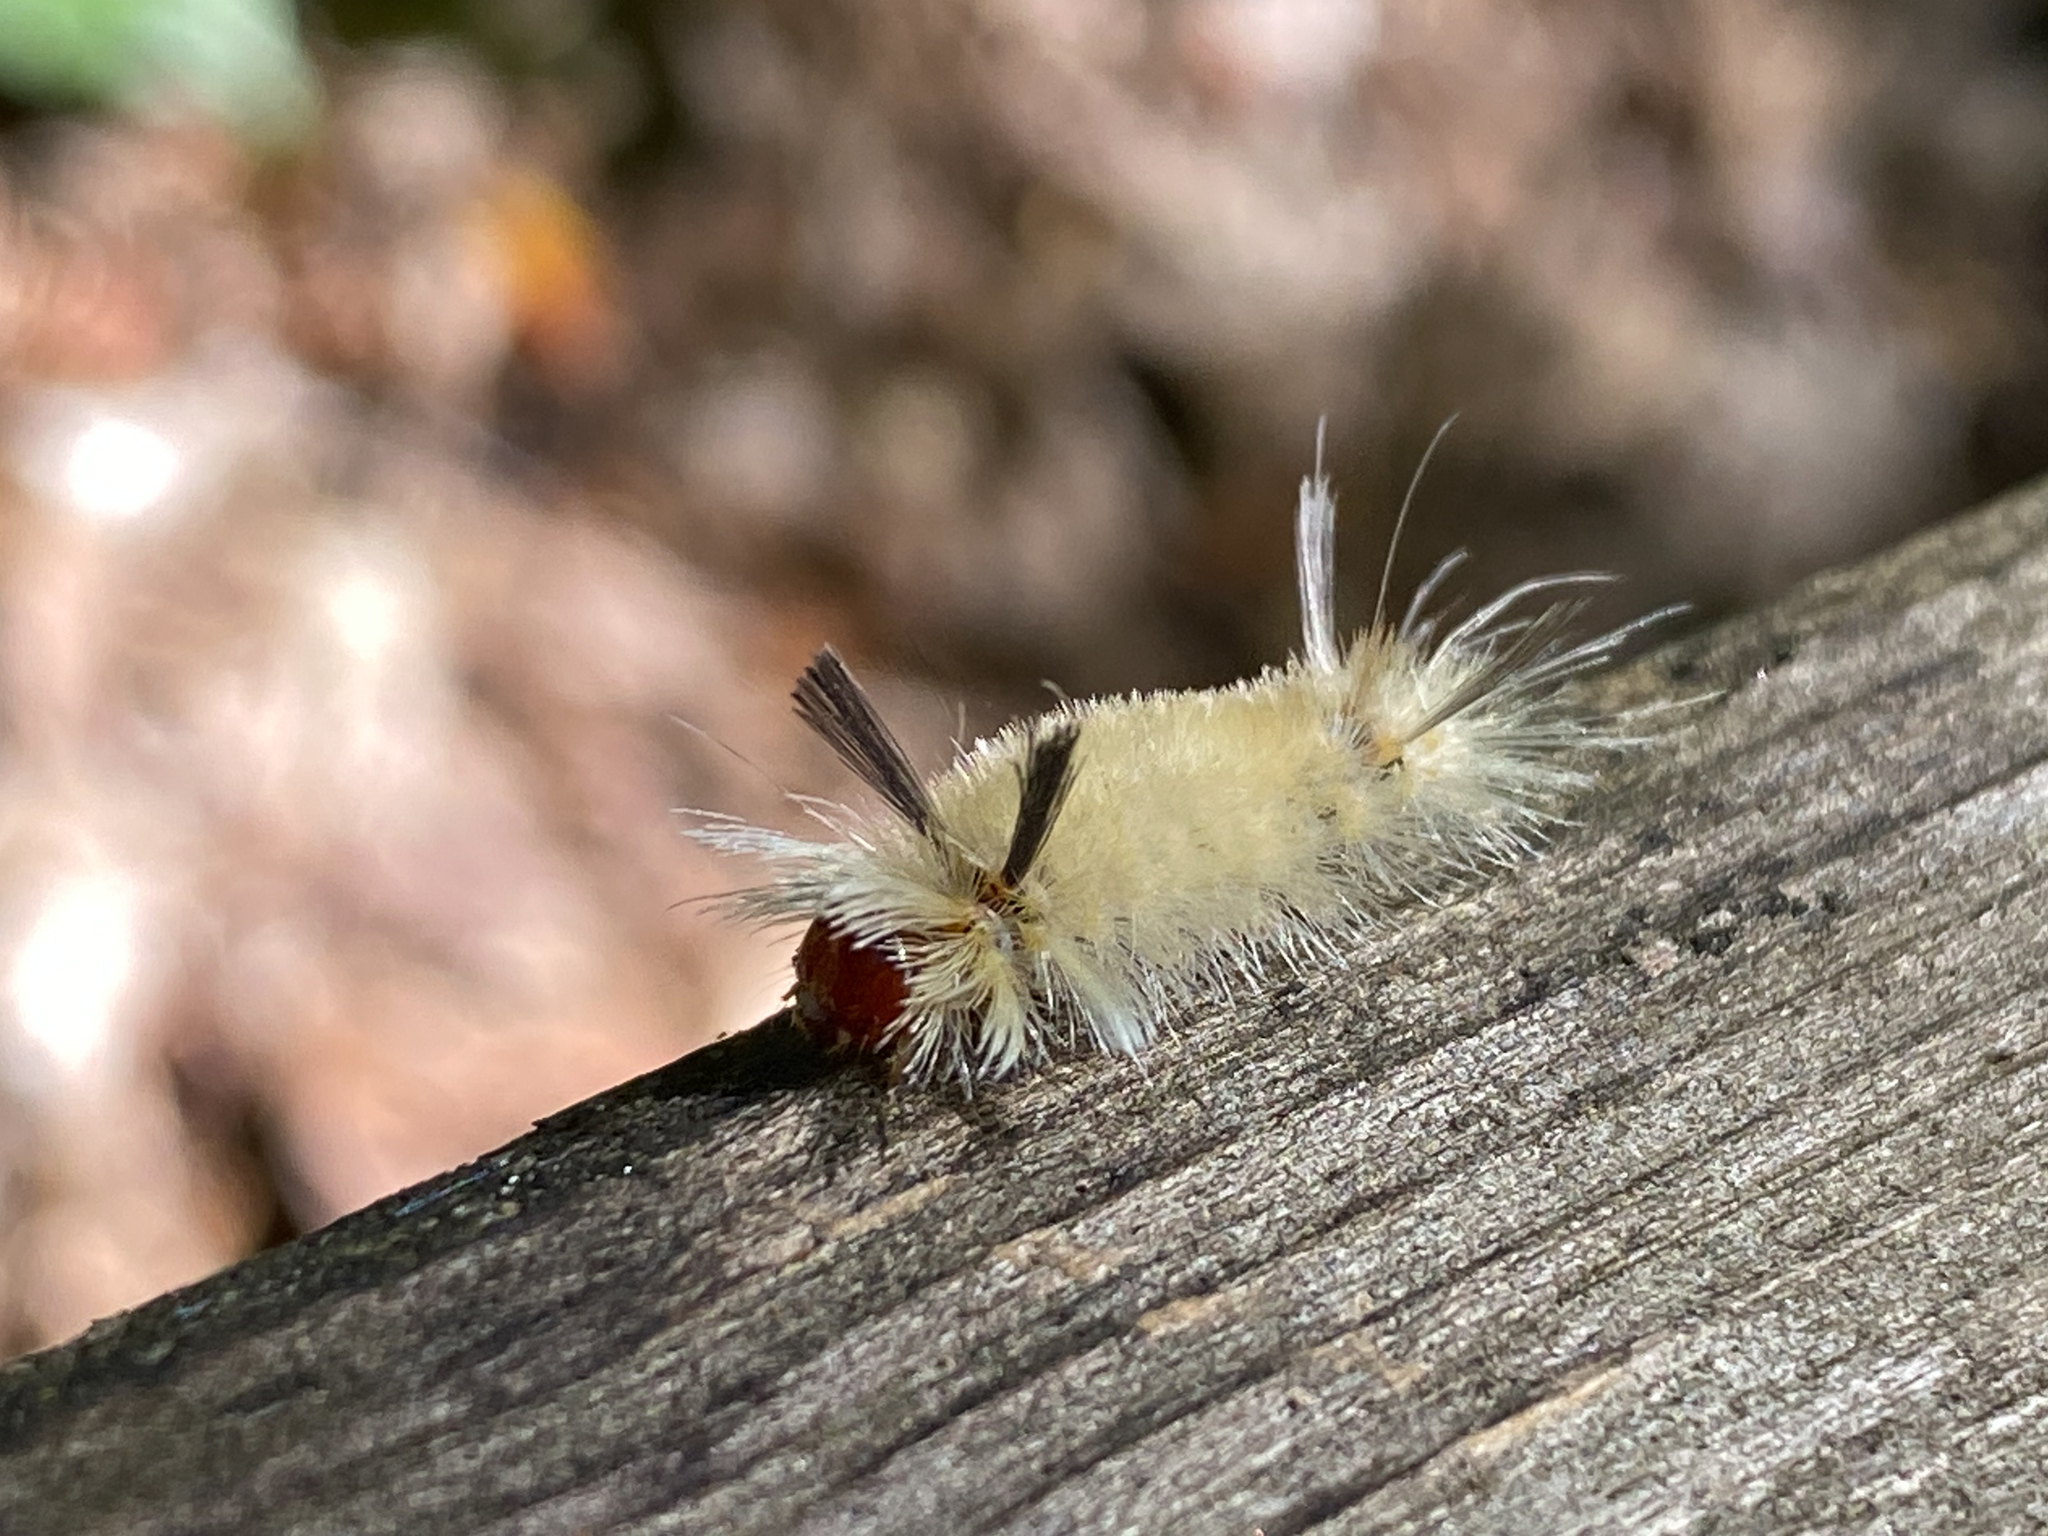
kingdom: Animalia
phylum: Arthropoda
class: Insecta
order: Lepidoptera
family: Erebidae
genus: Halysidota
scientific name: Halysidota tessellaris
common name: Banded tussock moth
